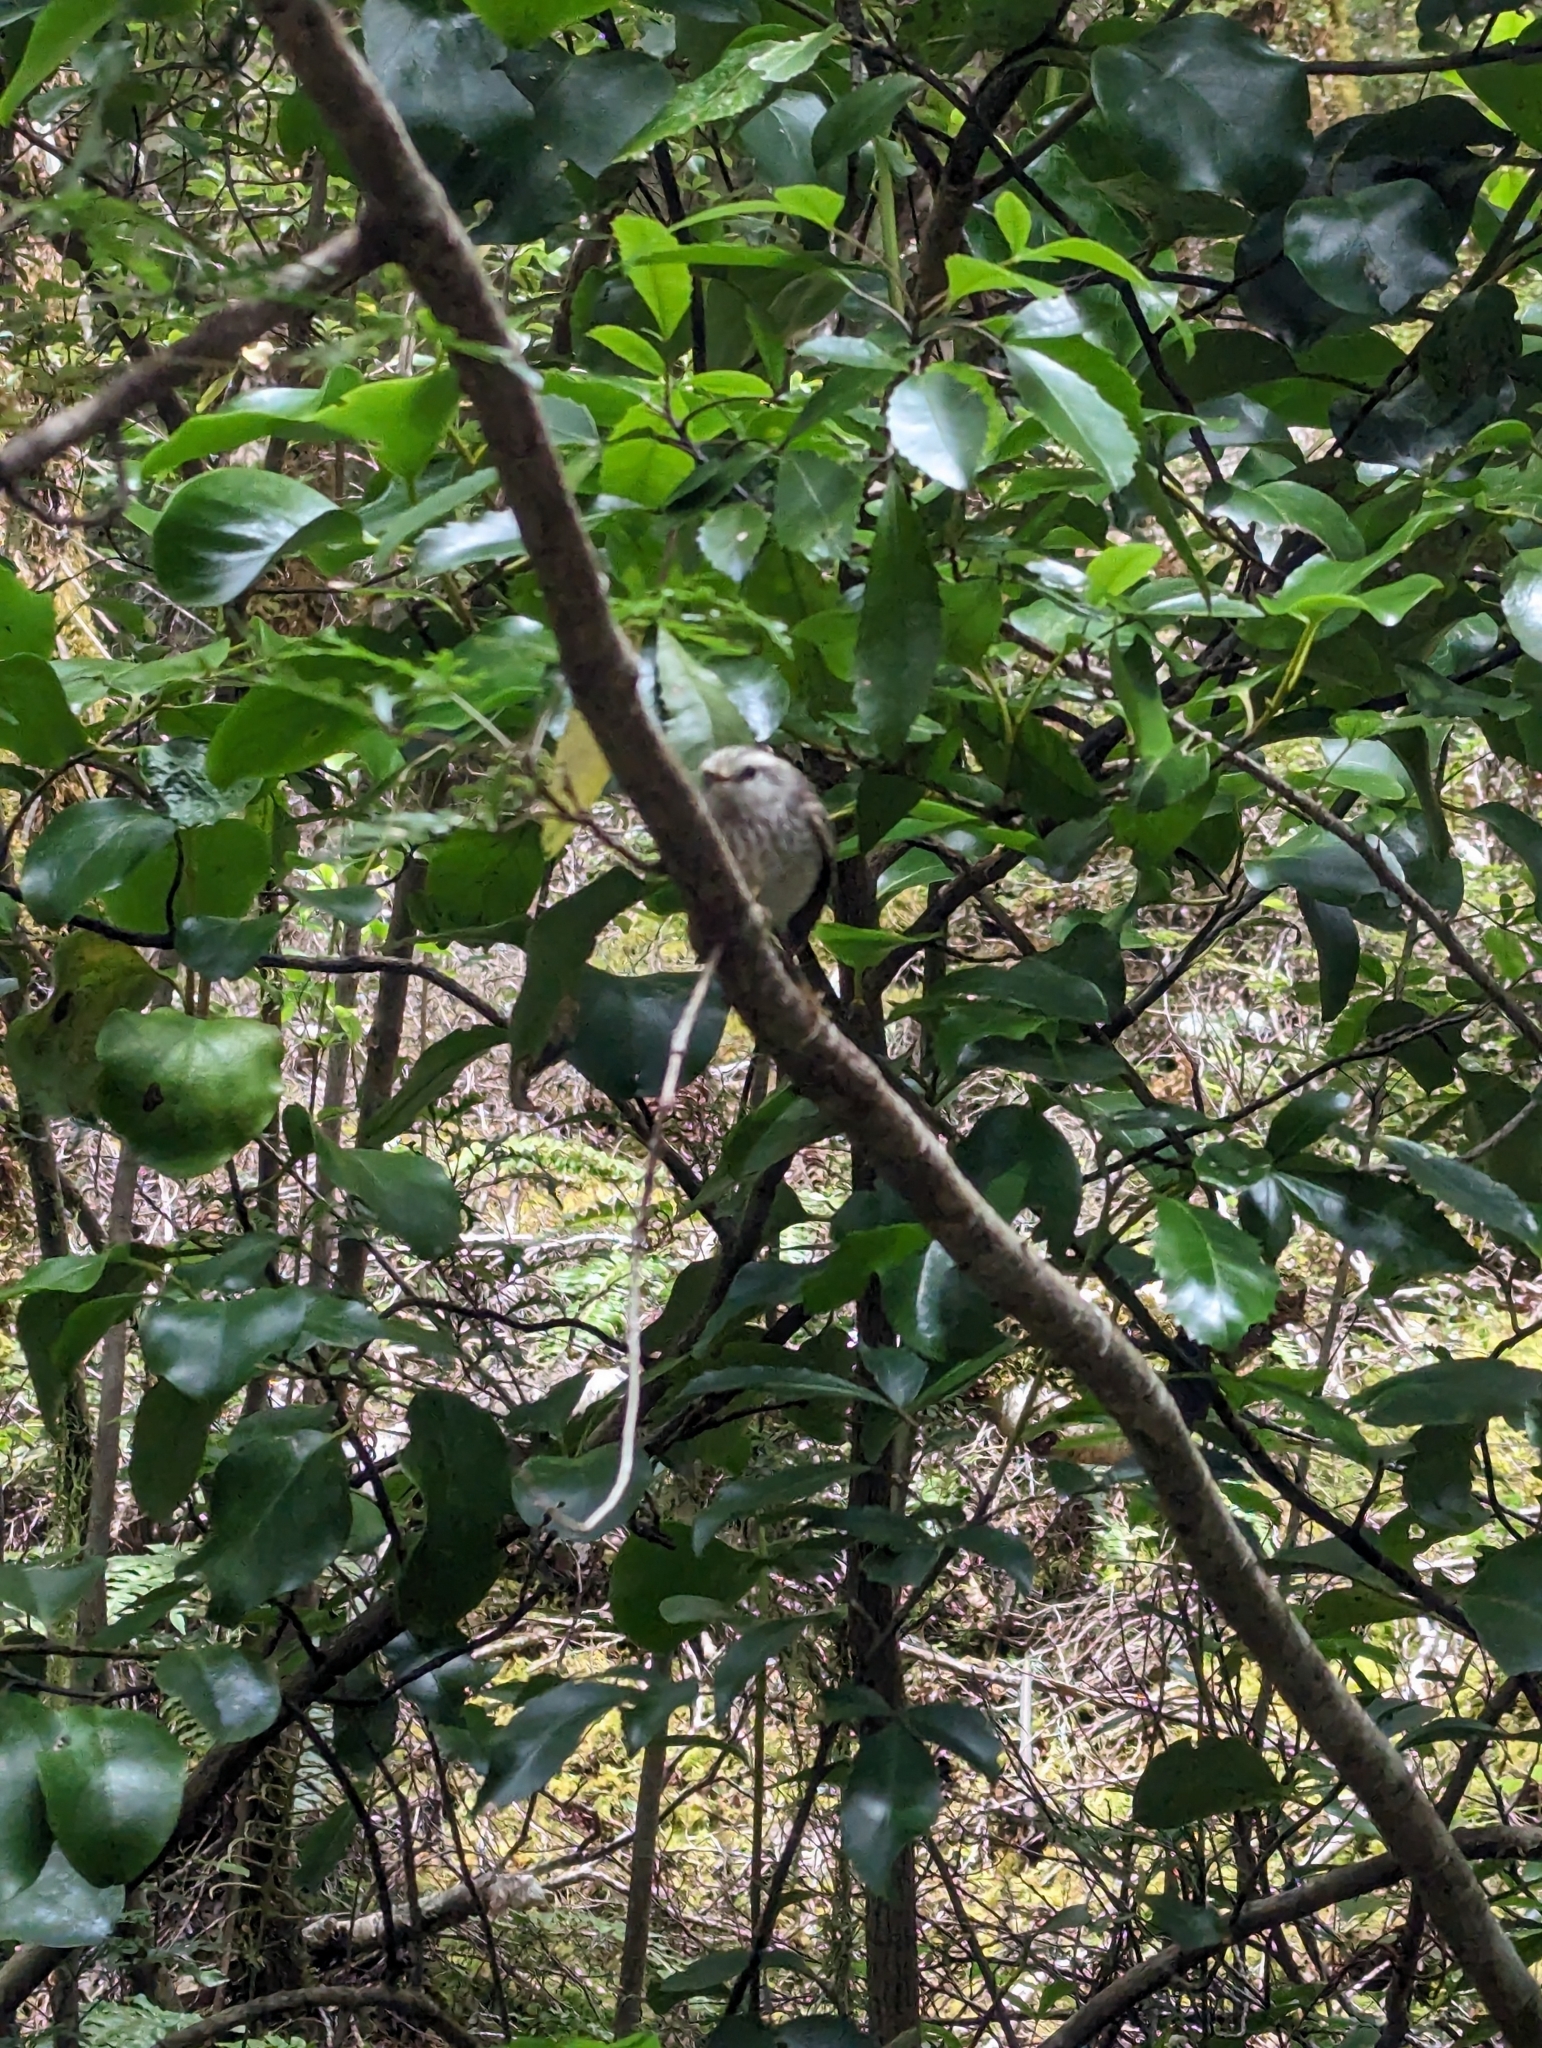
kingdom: Animalia
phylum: Chordata
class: Aves
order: Passeriformes
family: Acanthisittidae
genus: Acanthisitta
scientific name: Acanthisitta chloris
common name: Rifleman
